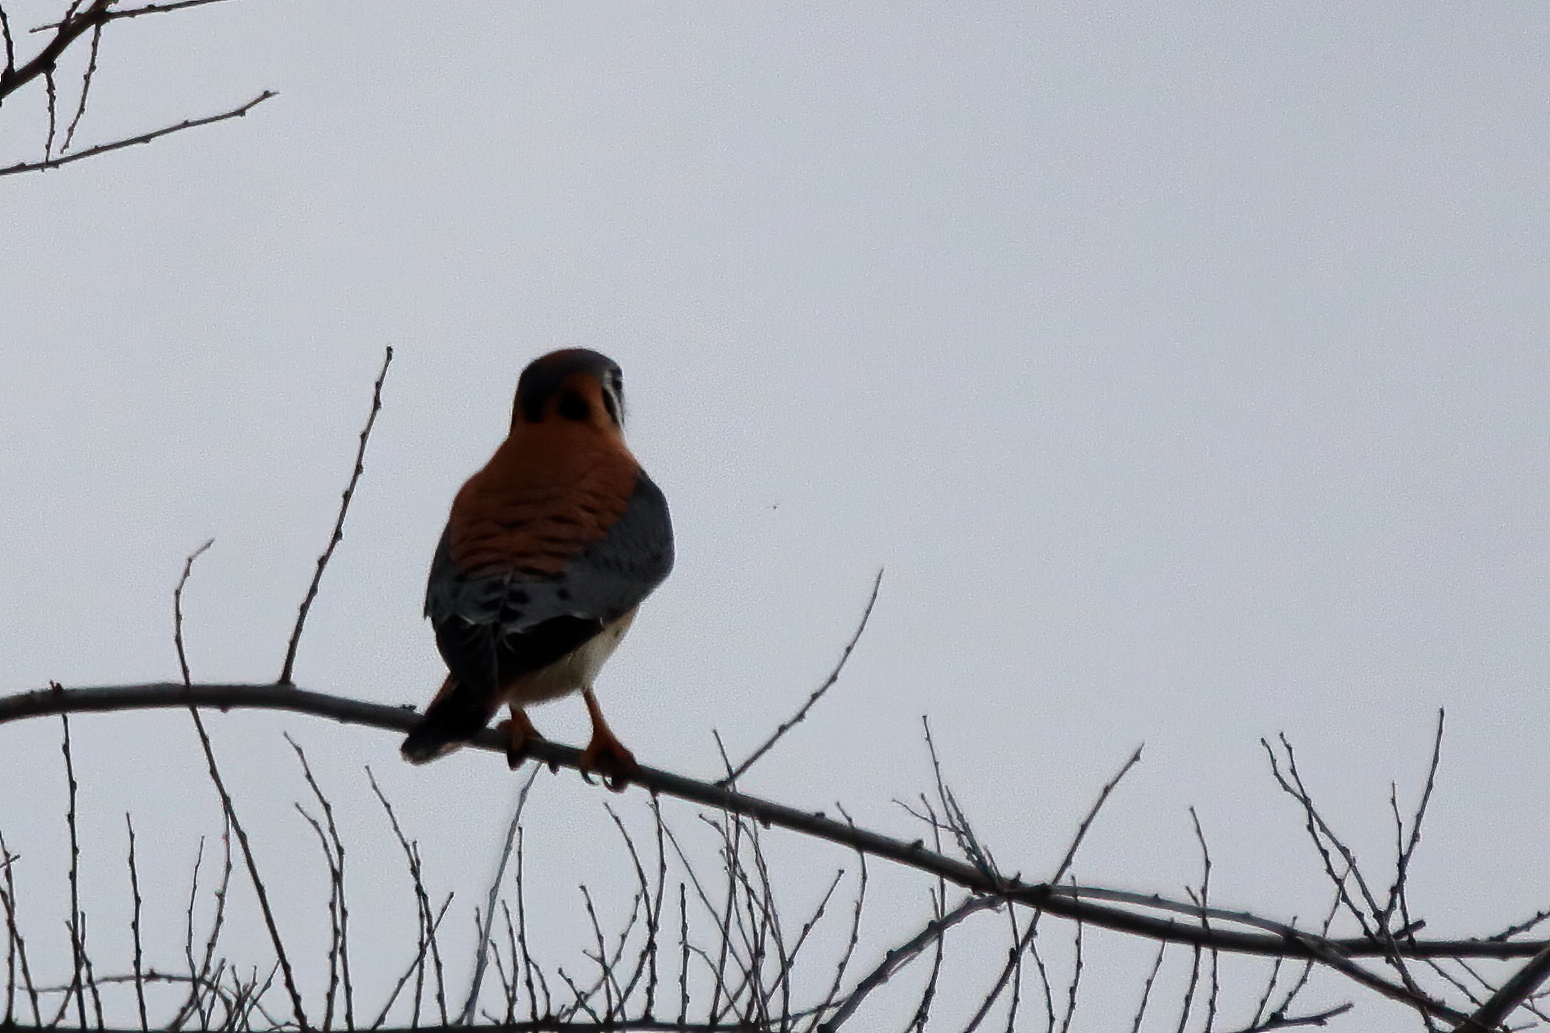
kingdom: Animalia
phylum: Chordata
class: Aves
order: Falconiformes
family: Falconidae
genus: Falco
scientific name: Falco sparverius
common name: American kestrel
